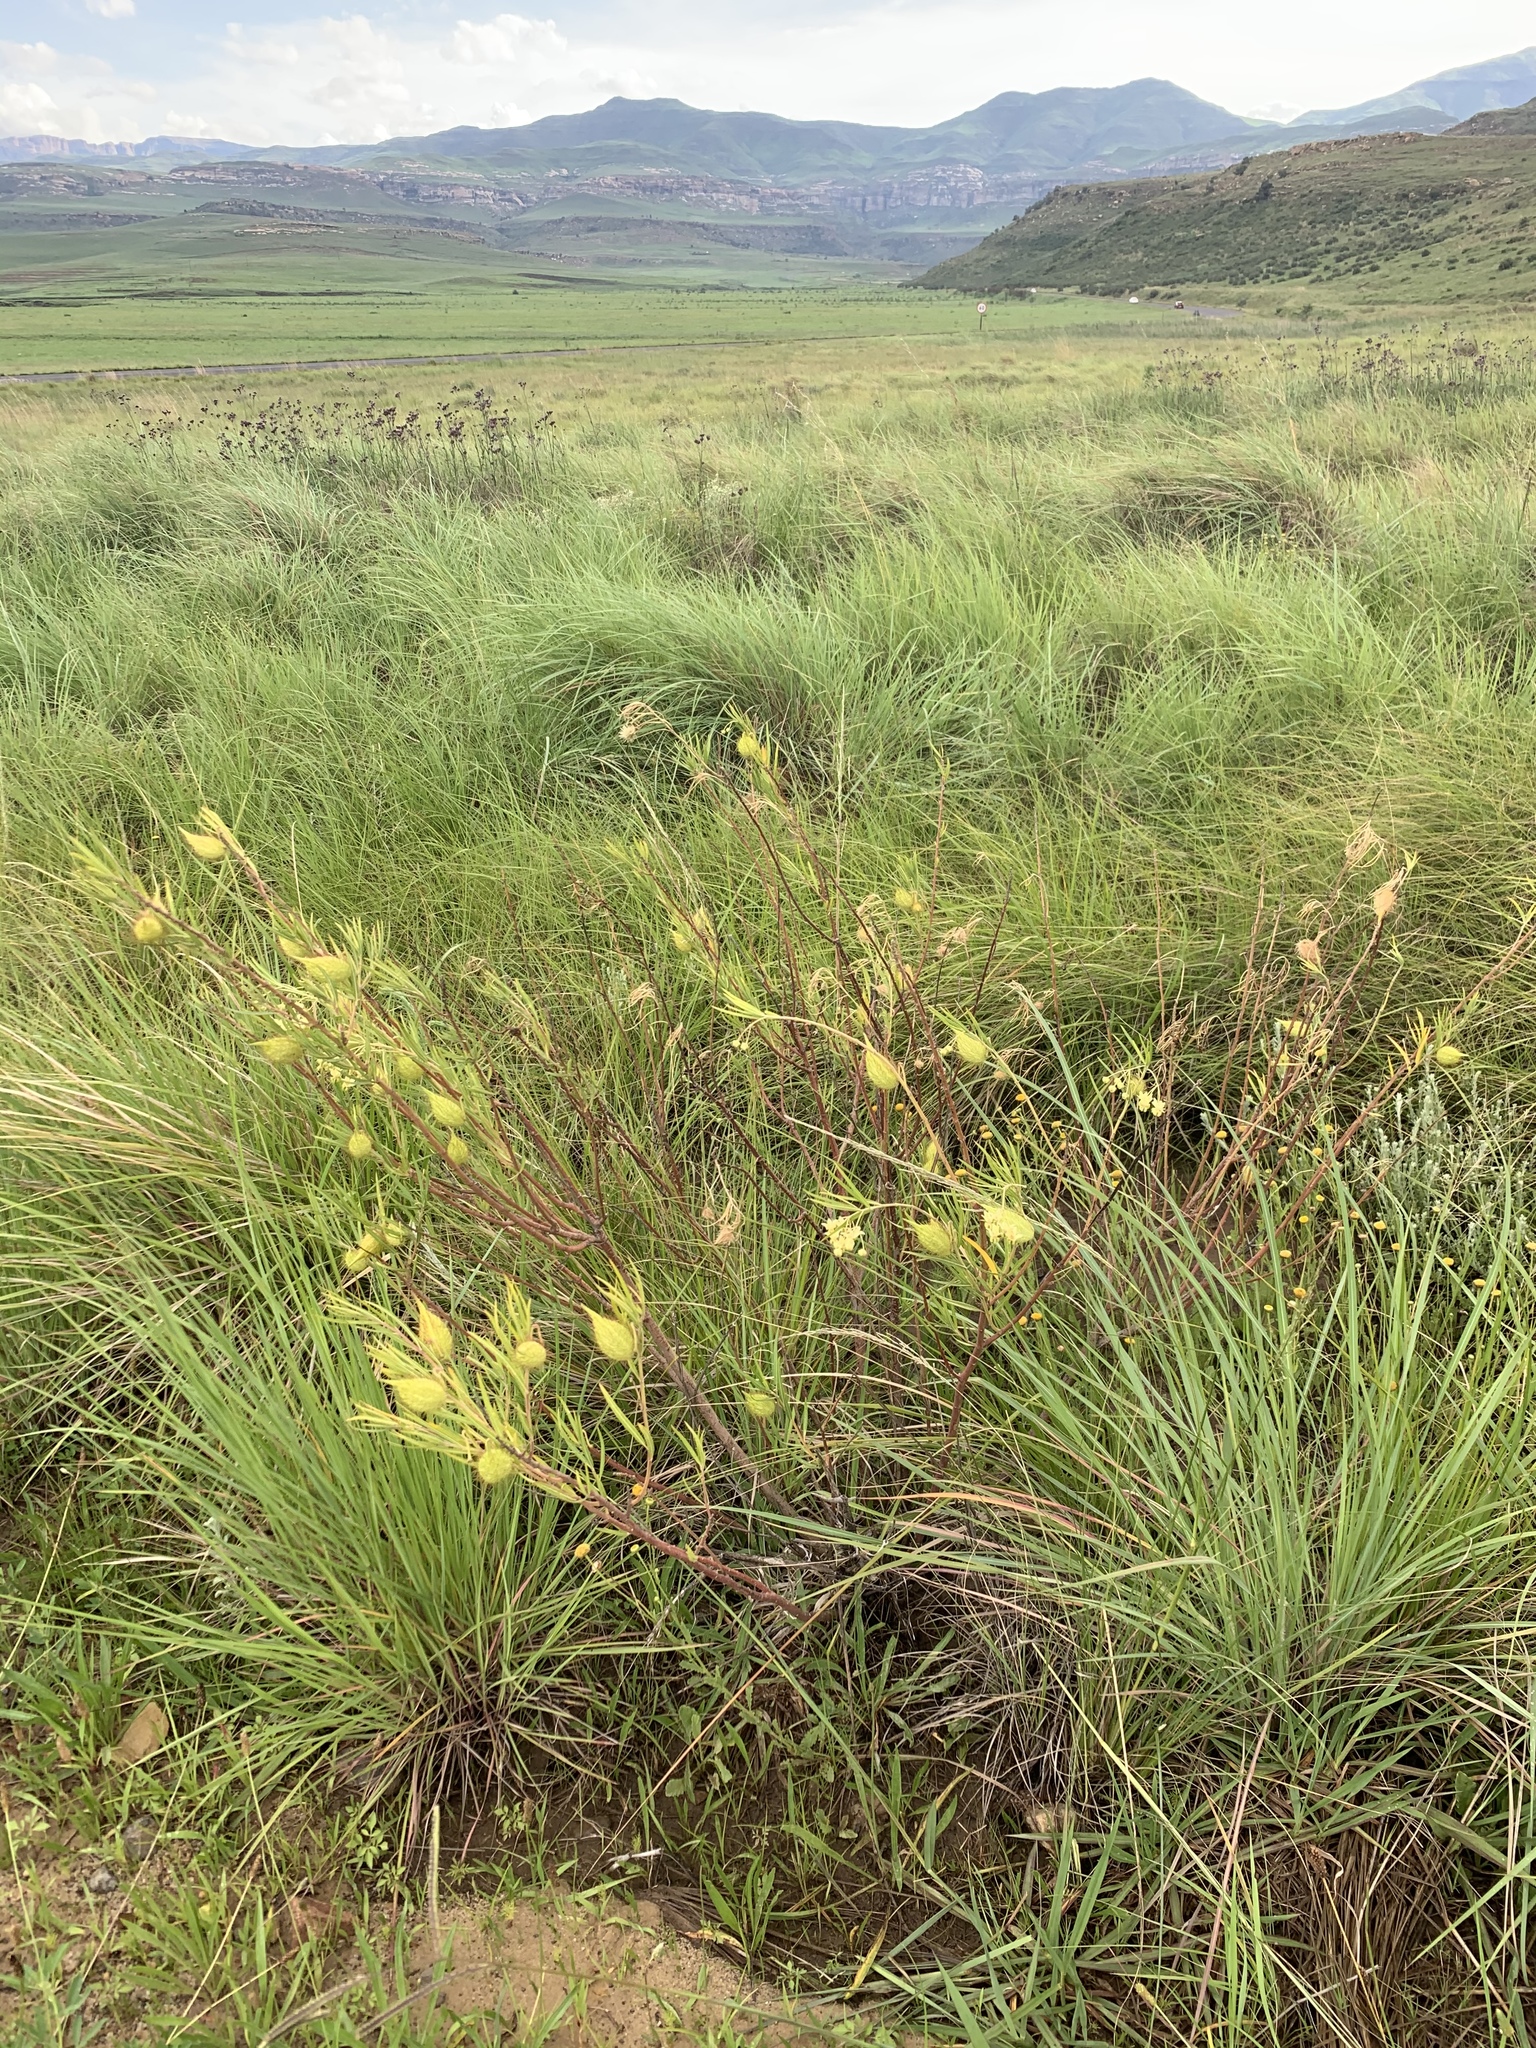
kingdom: Plantae
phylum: Tracheophyta
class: Magnoliopsida
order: Gentianales
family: Apocynaceae
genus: Gomphocarpus
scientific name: Gomphocarpus fruticosus
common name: Milkweed
